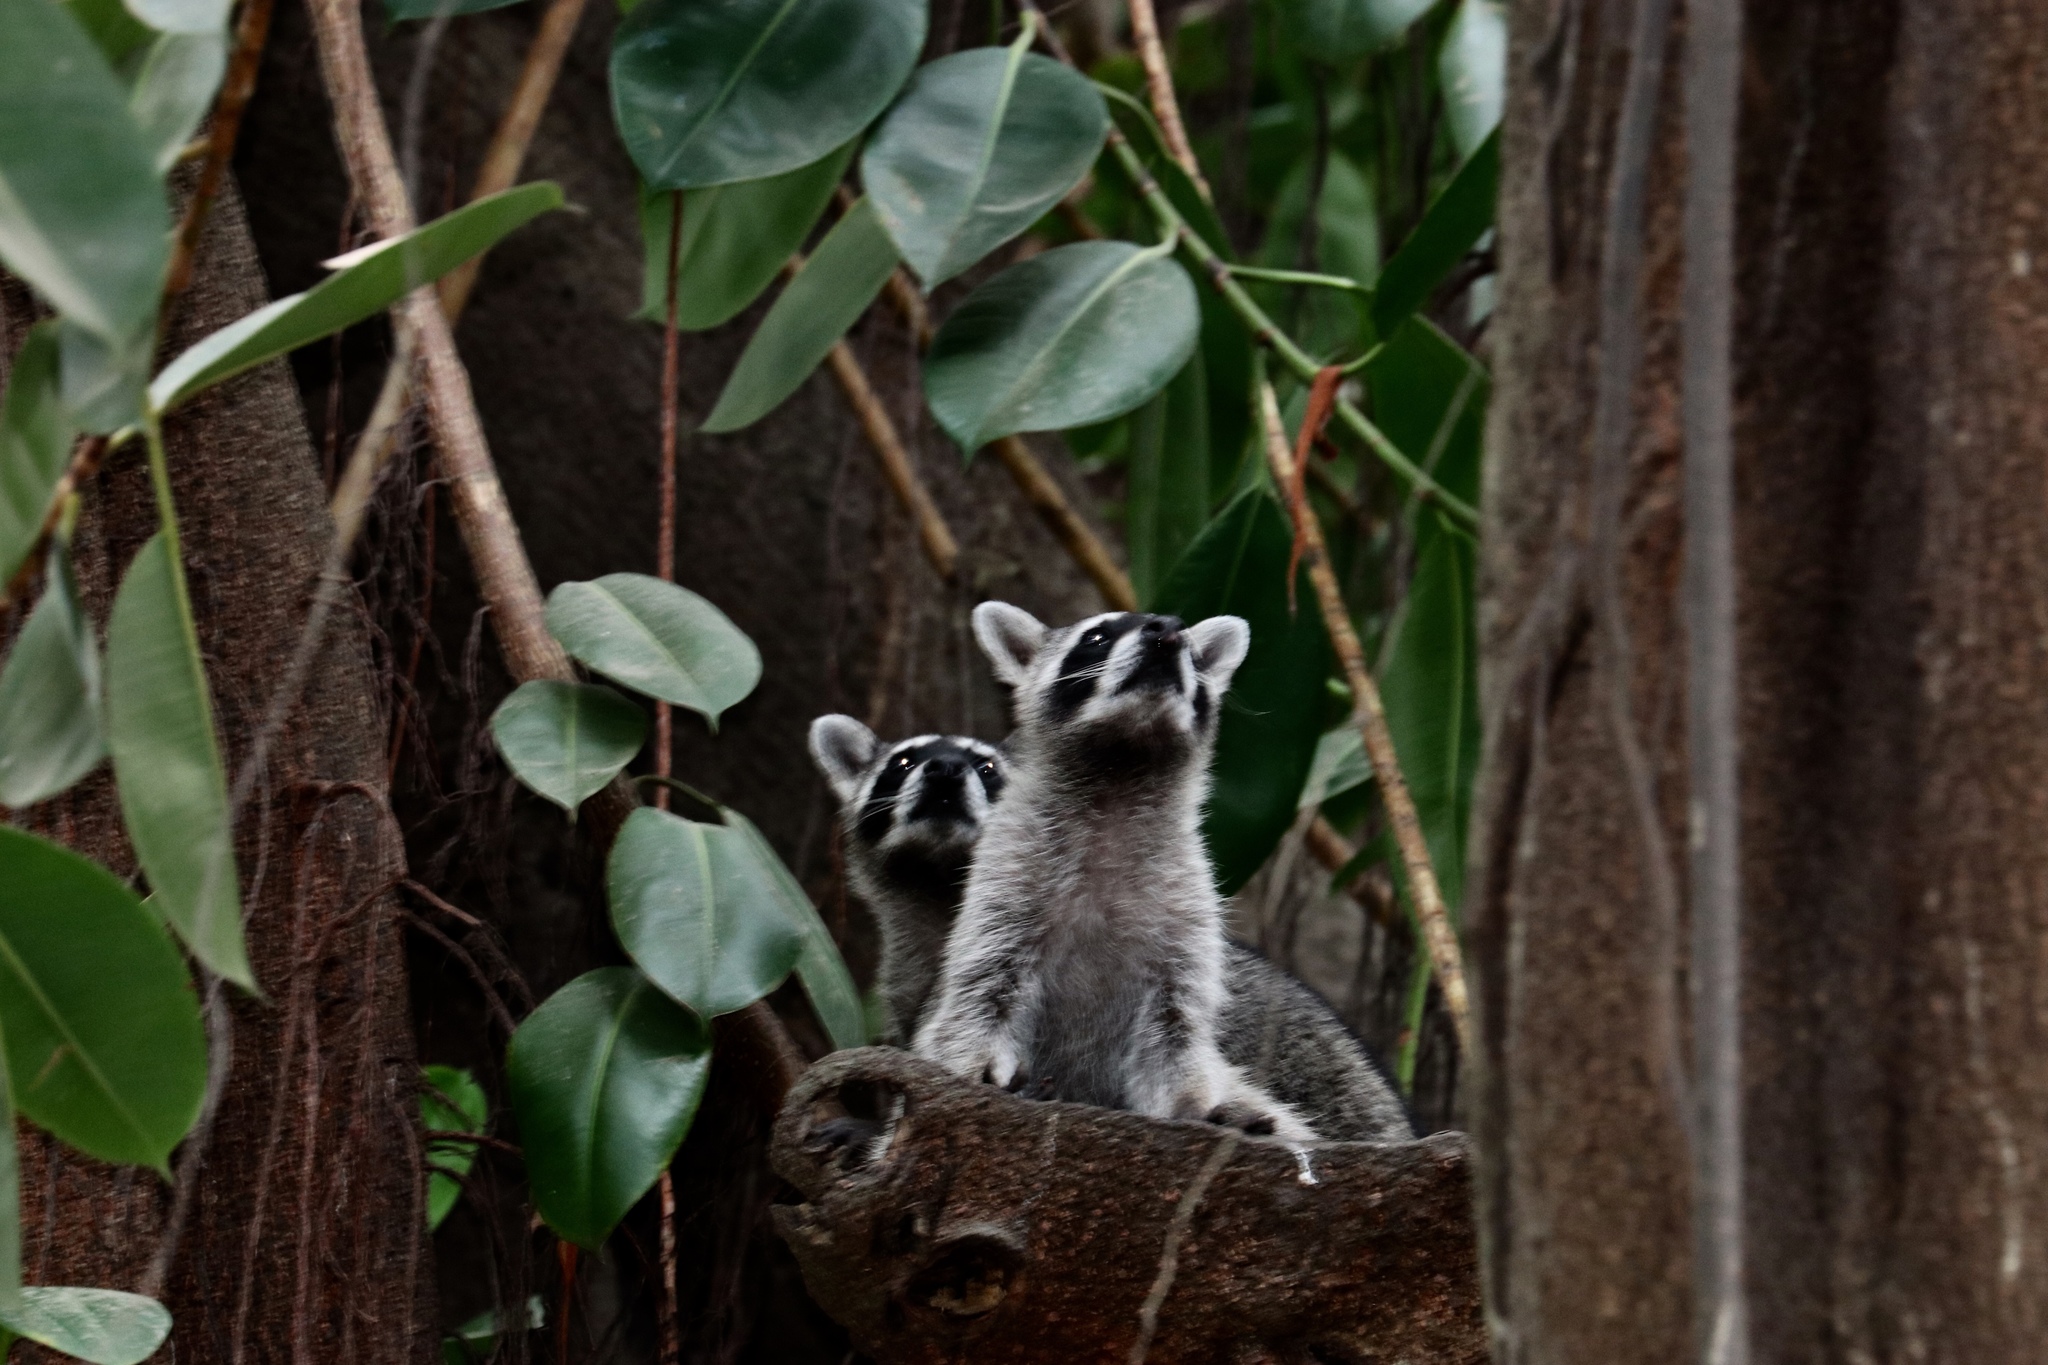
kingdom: Animalia
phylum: Chordata
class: Mammalia
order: Carnivora
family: Procyonidae
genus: Procyon
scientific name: Procyon lotor
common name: Raccoon
